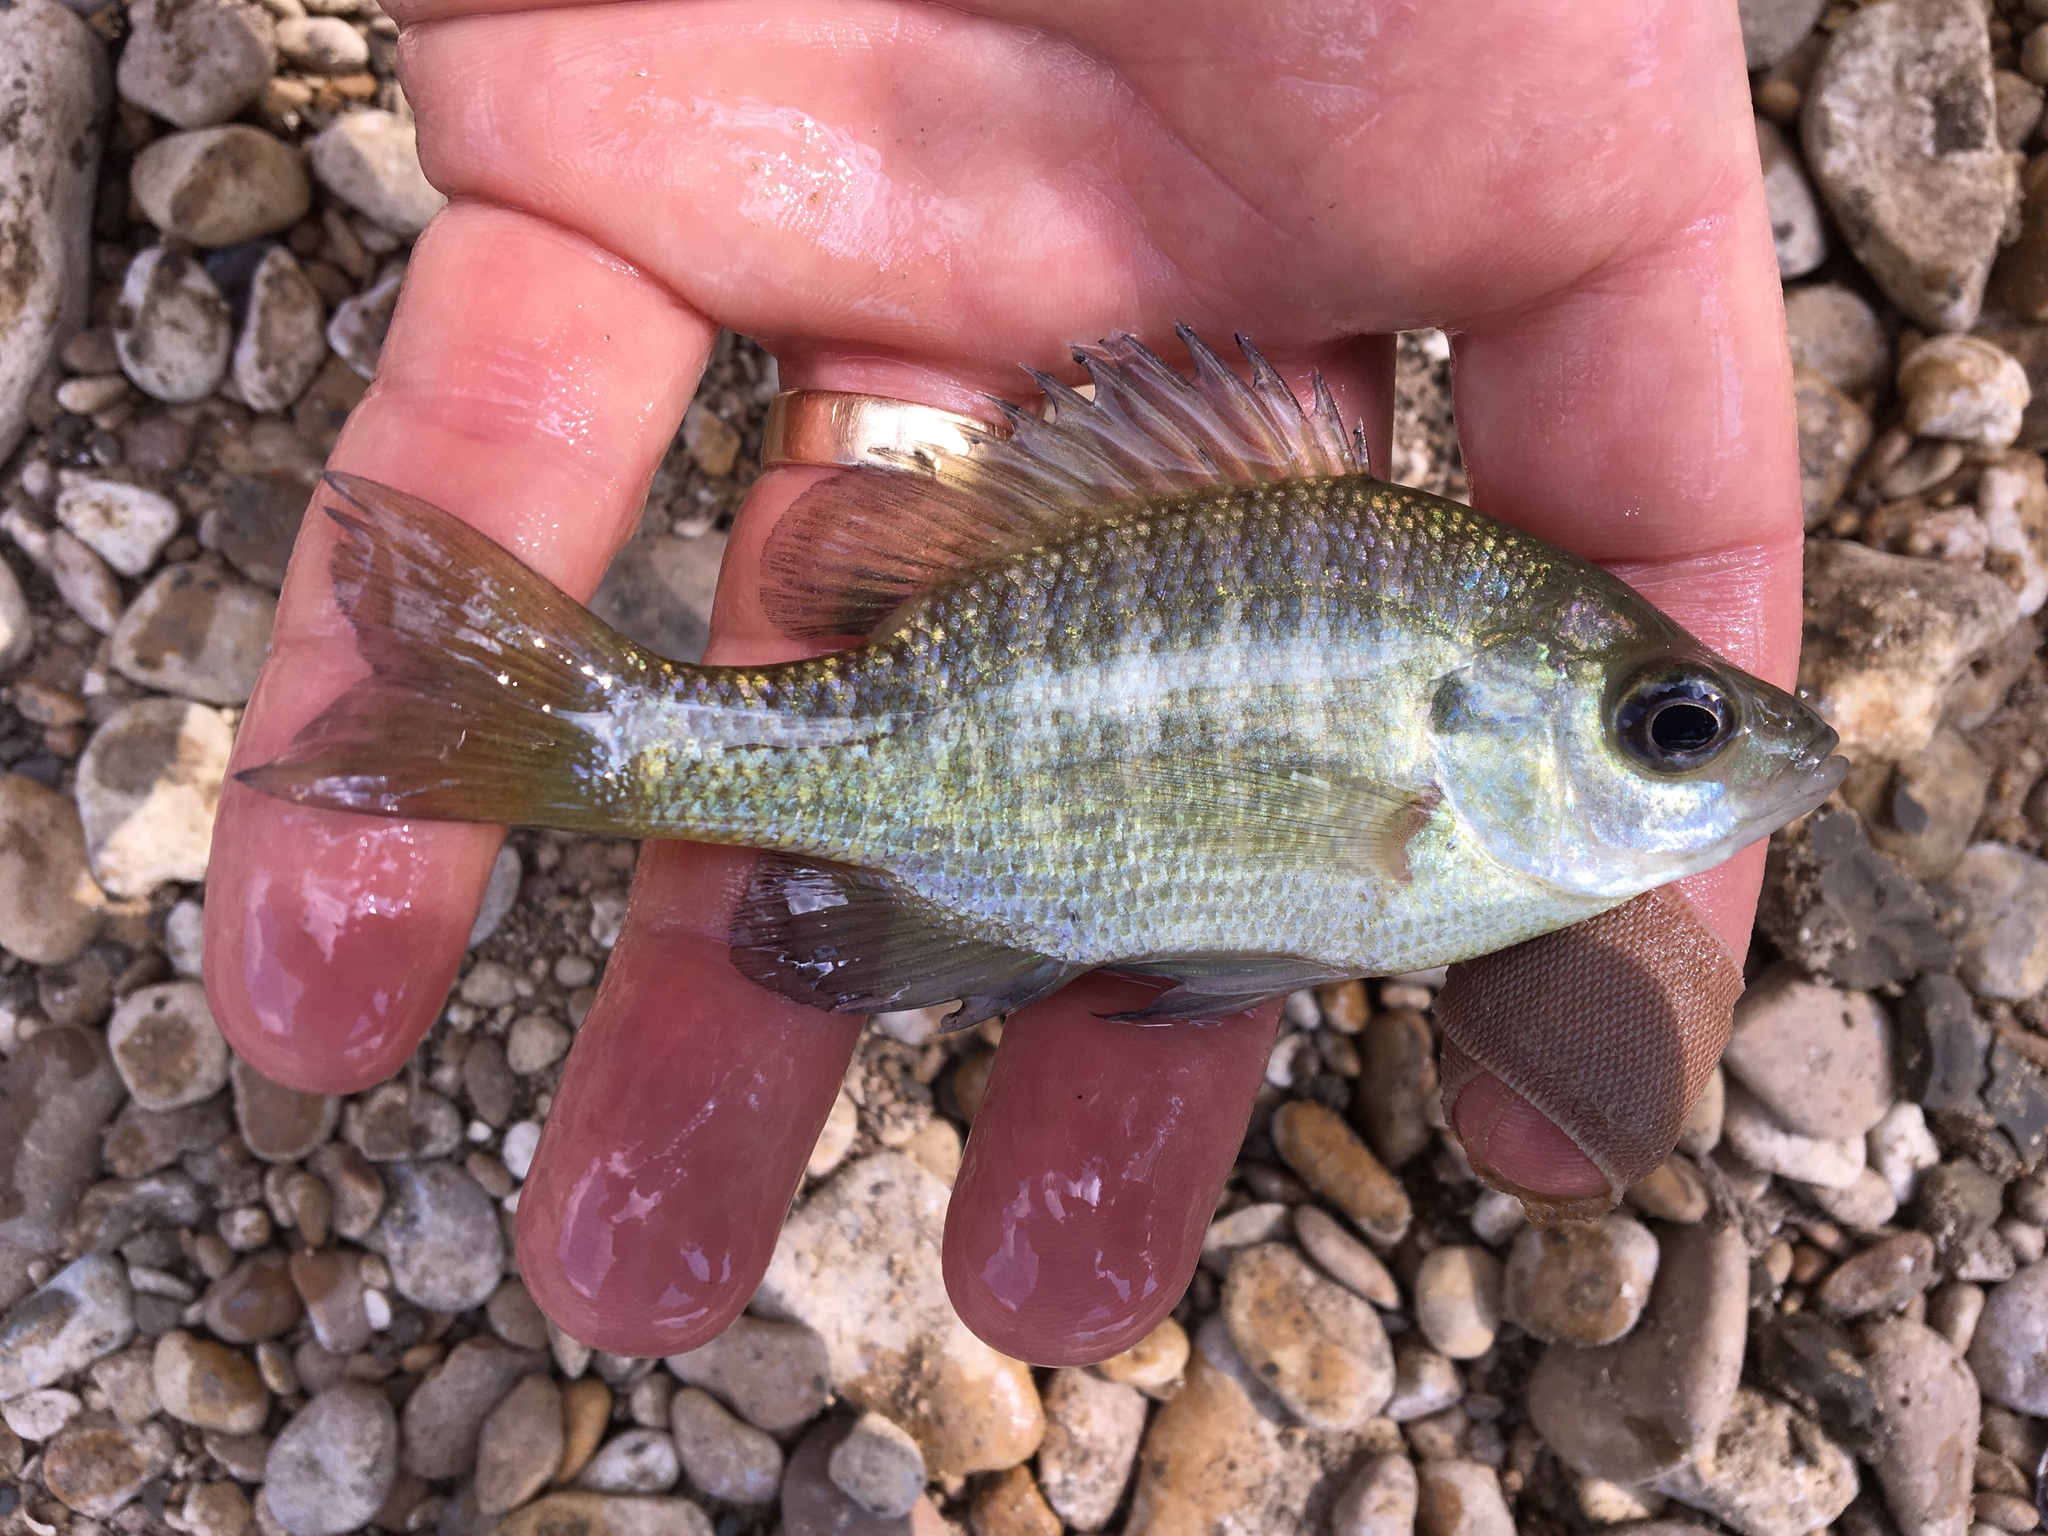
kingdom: Animalia
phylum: Chordata
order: Perciformes
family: Centrarchidae
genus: Lepomis
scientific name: Lepomis macrochirus
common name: Bluegill
